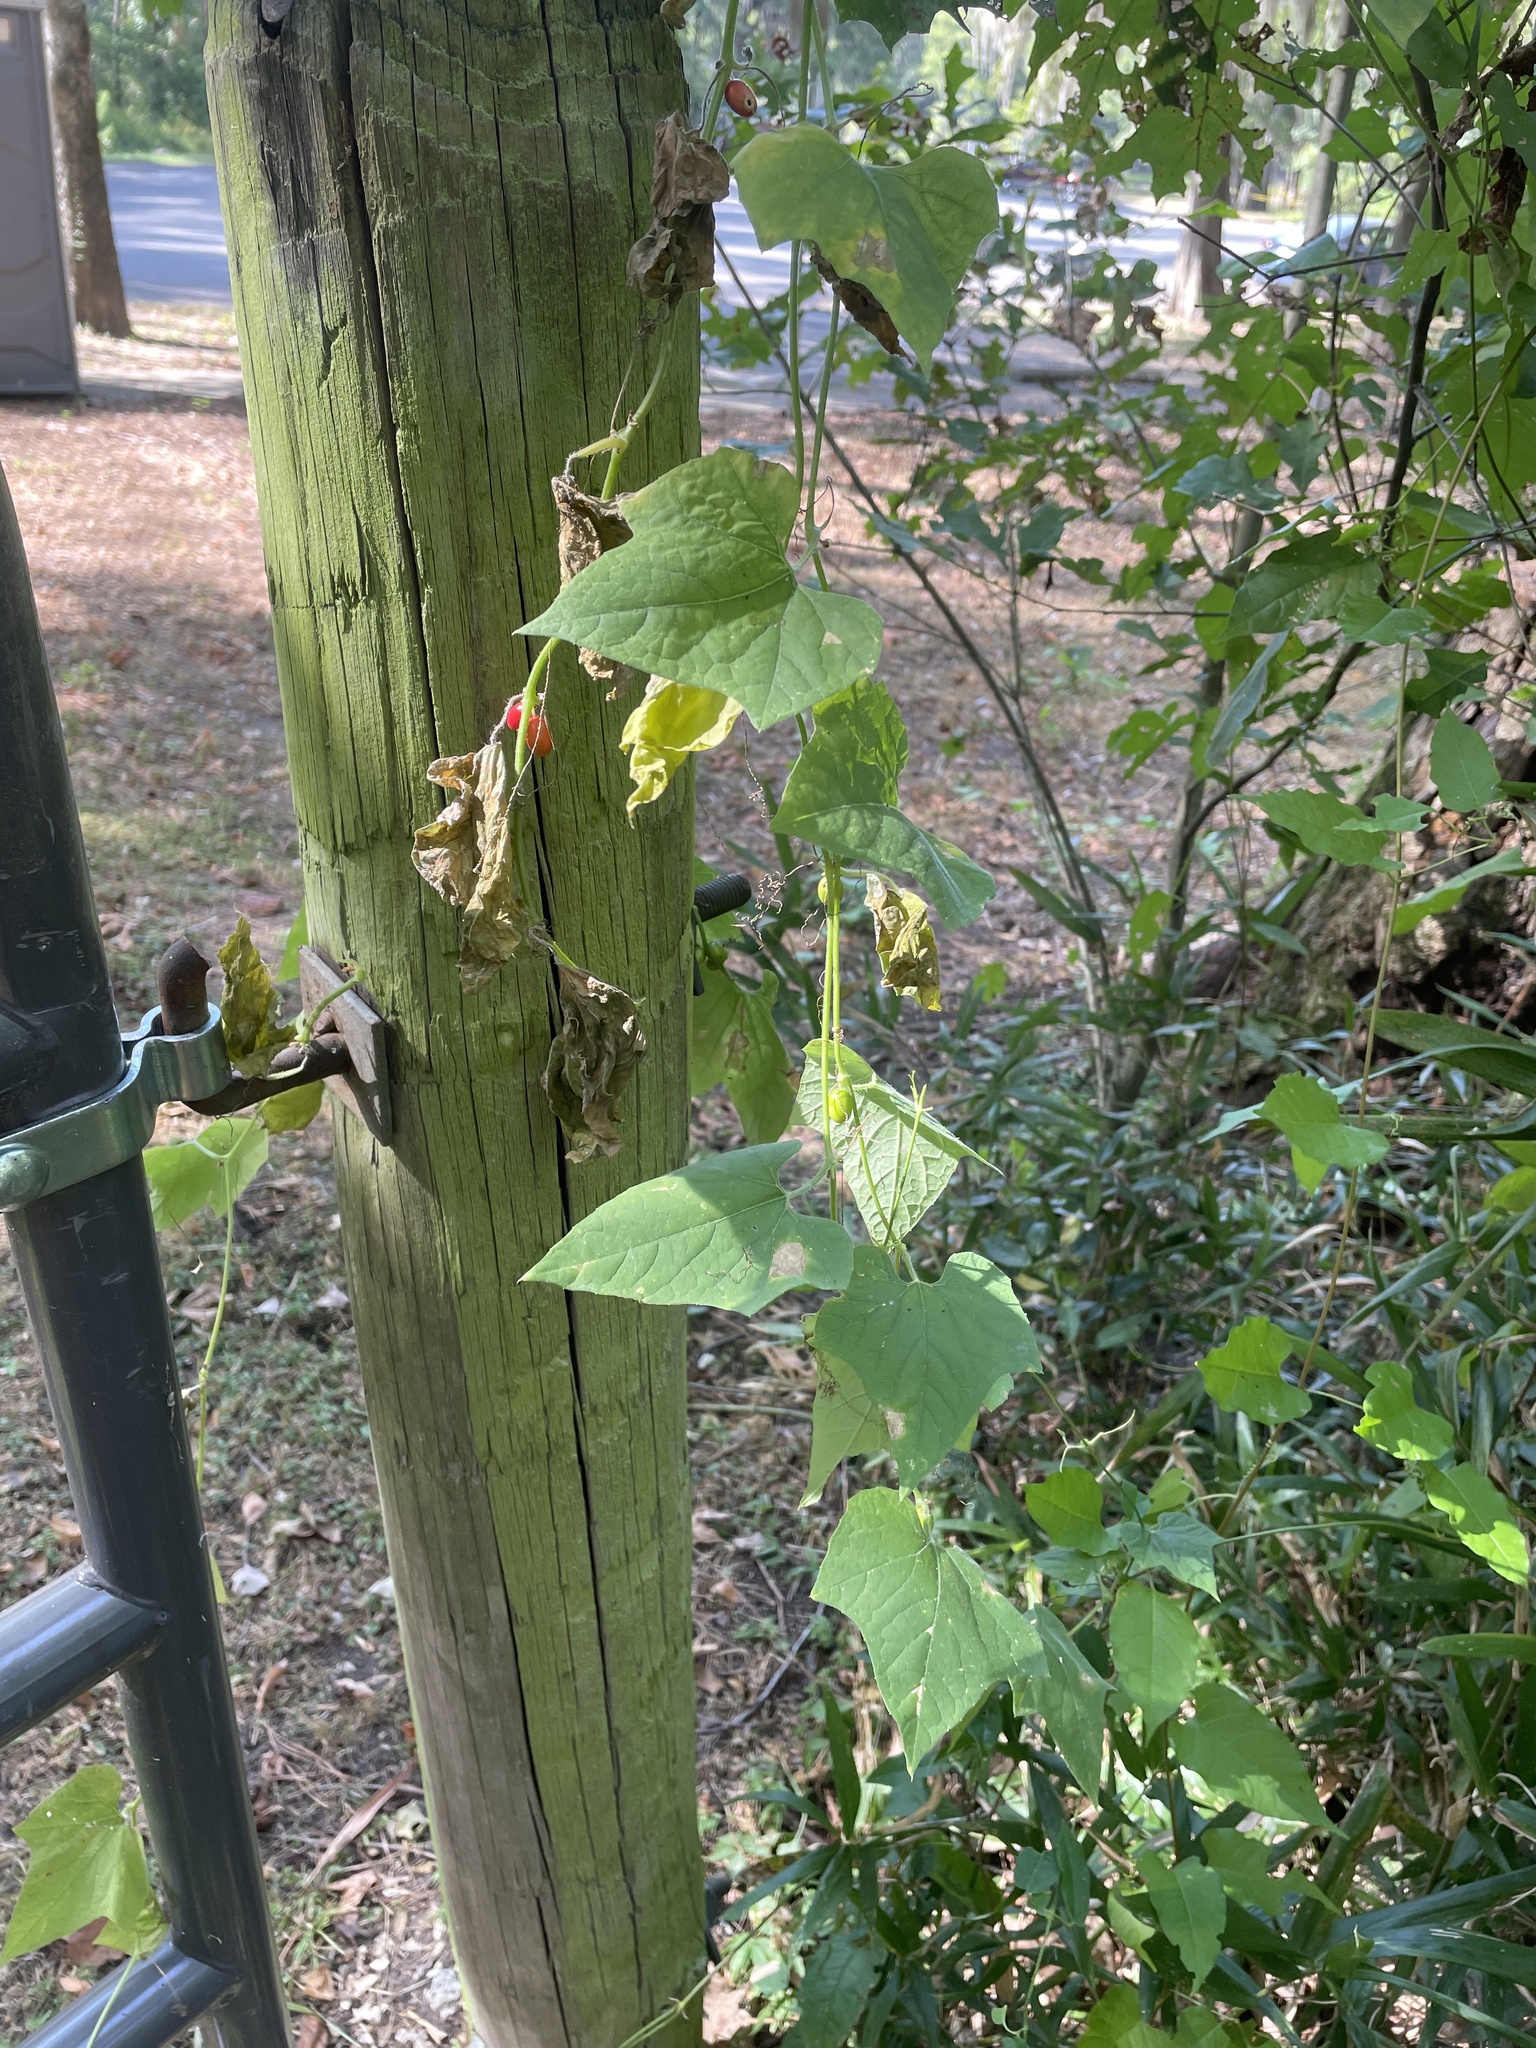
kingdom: Plantae
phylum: Tracheophyta
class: Magnoliopsida
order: Cucurbitales
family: Cucurbitaceae
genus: Cayaponia
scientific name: Cayaponia quinqueloba
